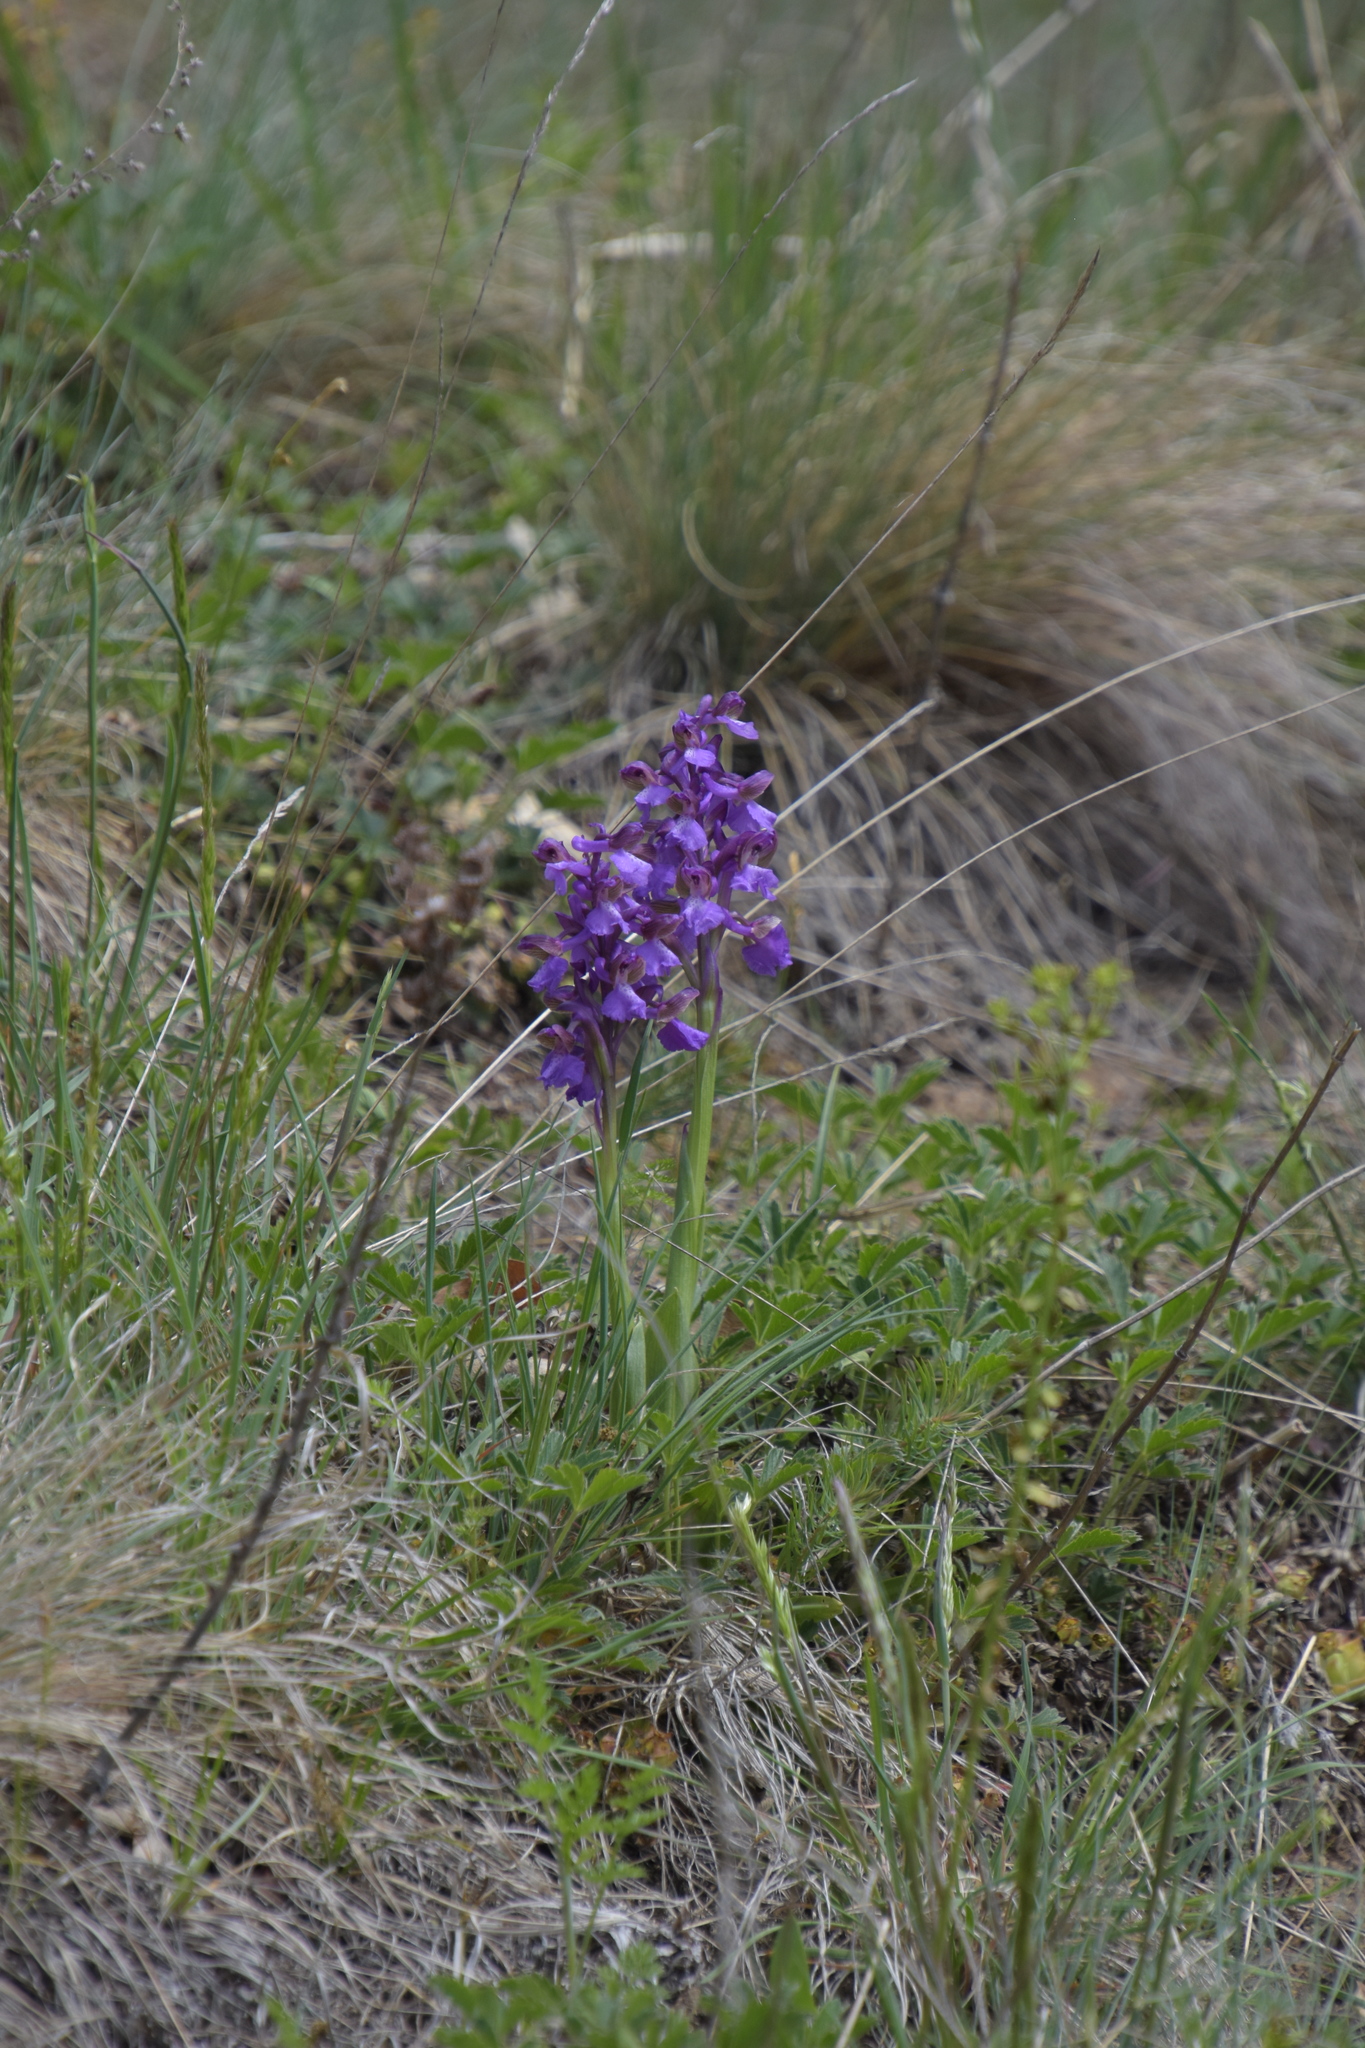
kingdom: Plantae
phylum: Tracheophyta
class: Liliopsida
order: Asparagales
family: Orchidaceae
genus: Anacamptis
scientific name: Anacamptis morio
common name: Green-winged orchid
